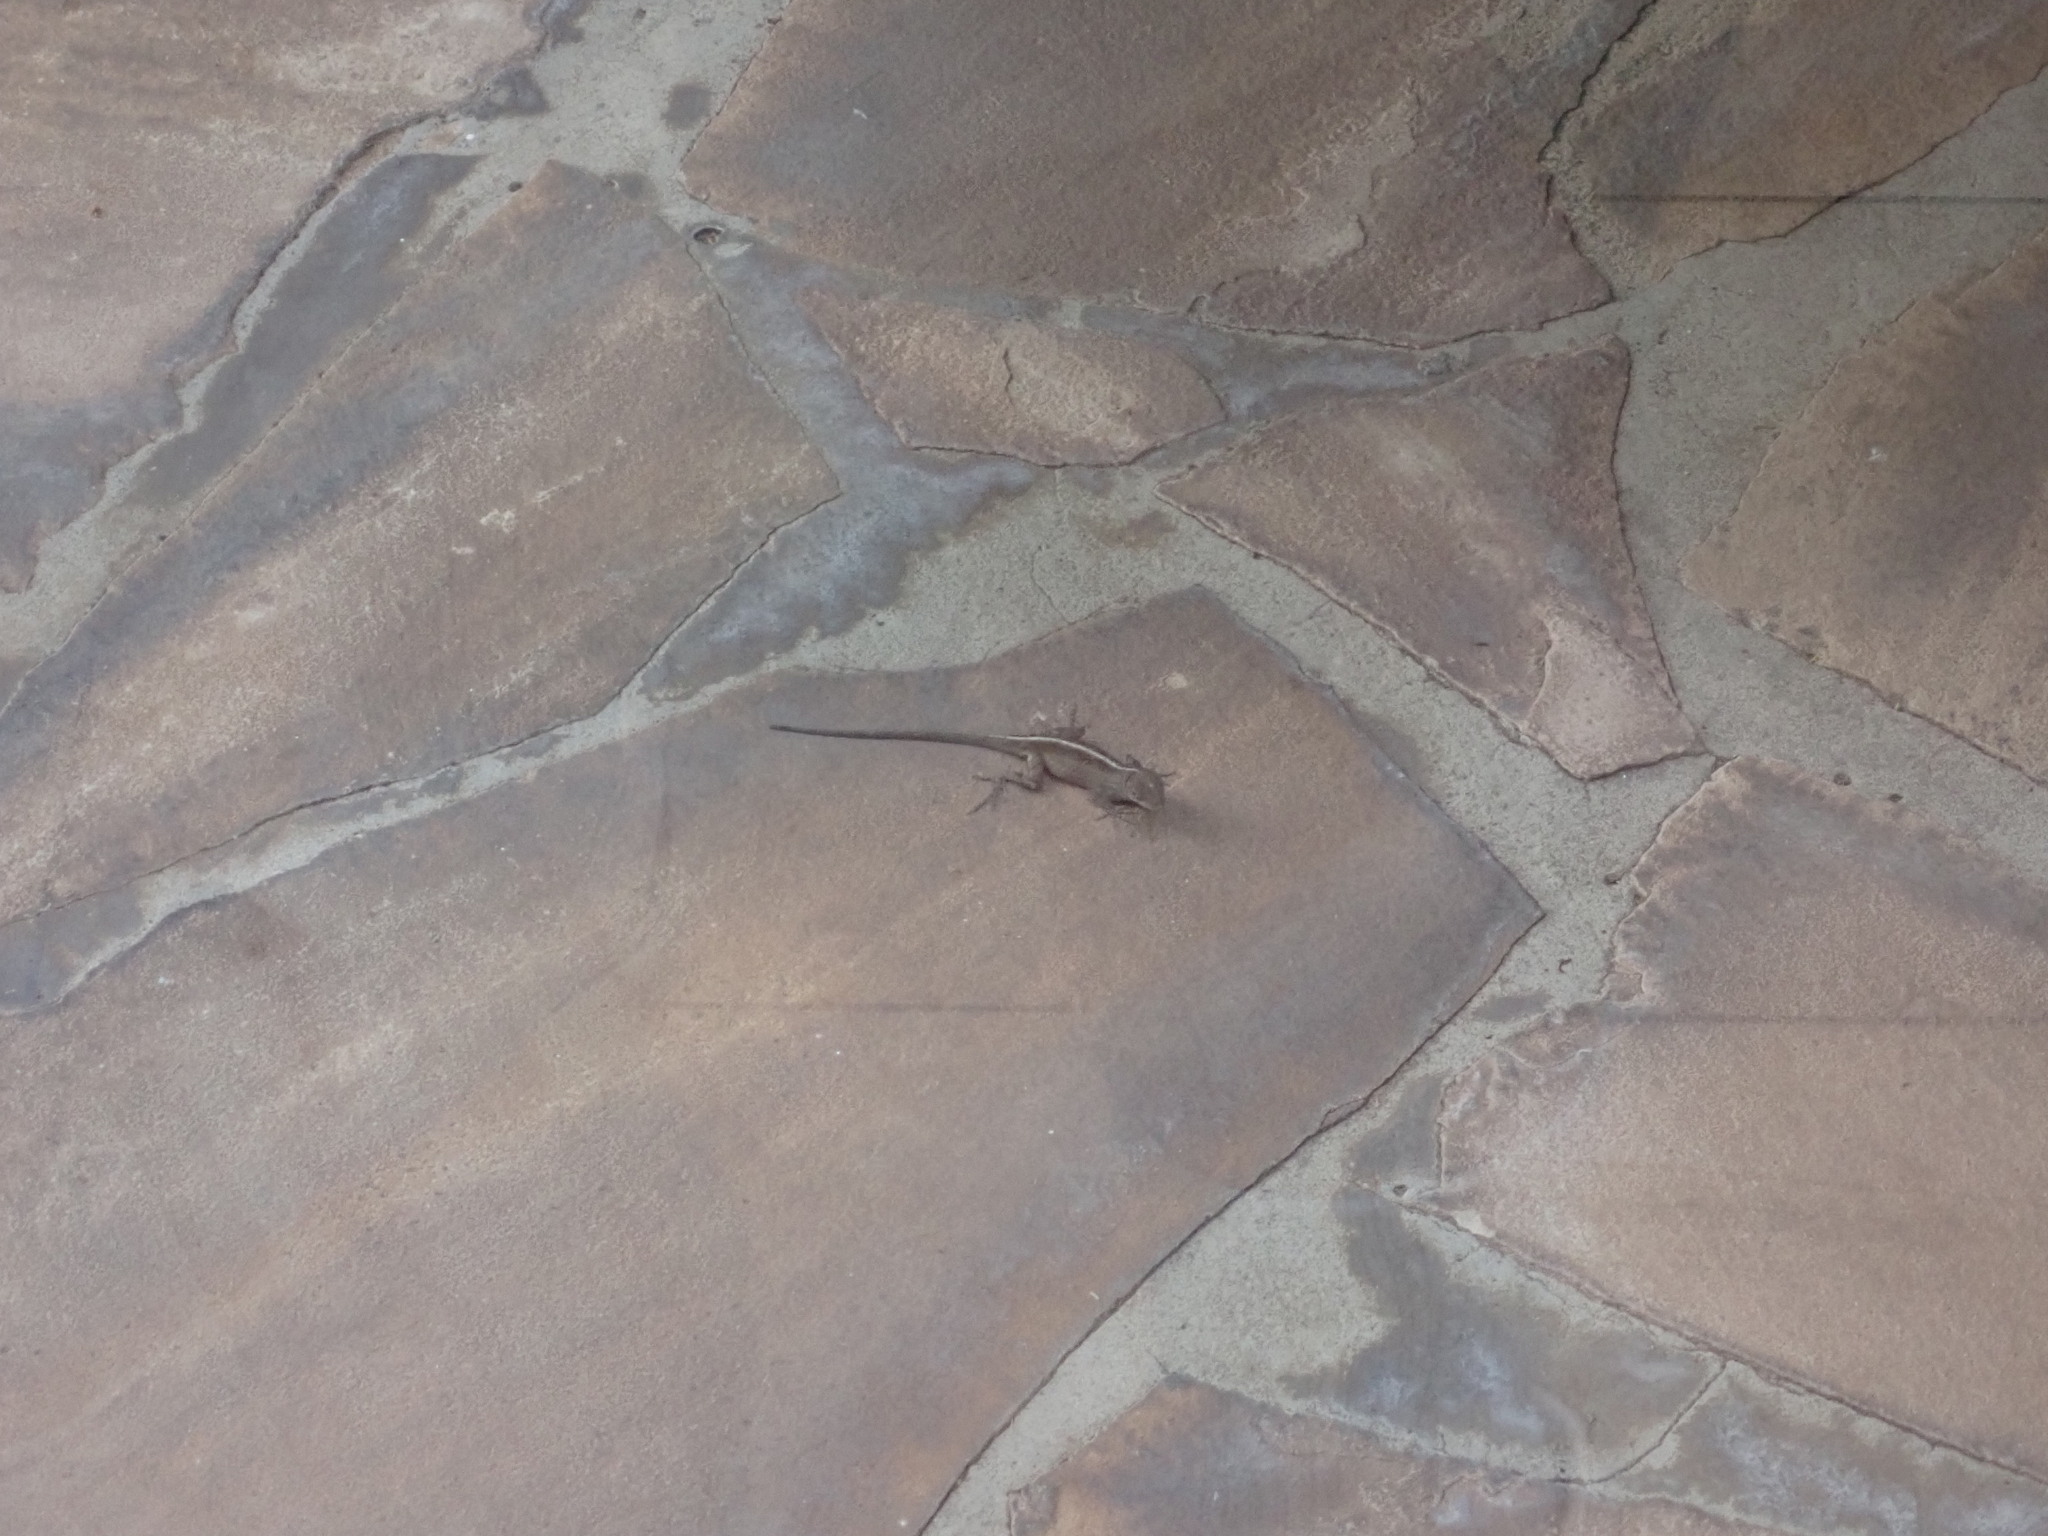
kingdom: Animalia
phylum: Chordata
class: Squamata
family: Dactyloidae
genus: Anolis
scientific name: Anolis sagrei
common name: Brown anole
